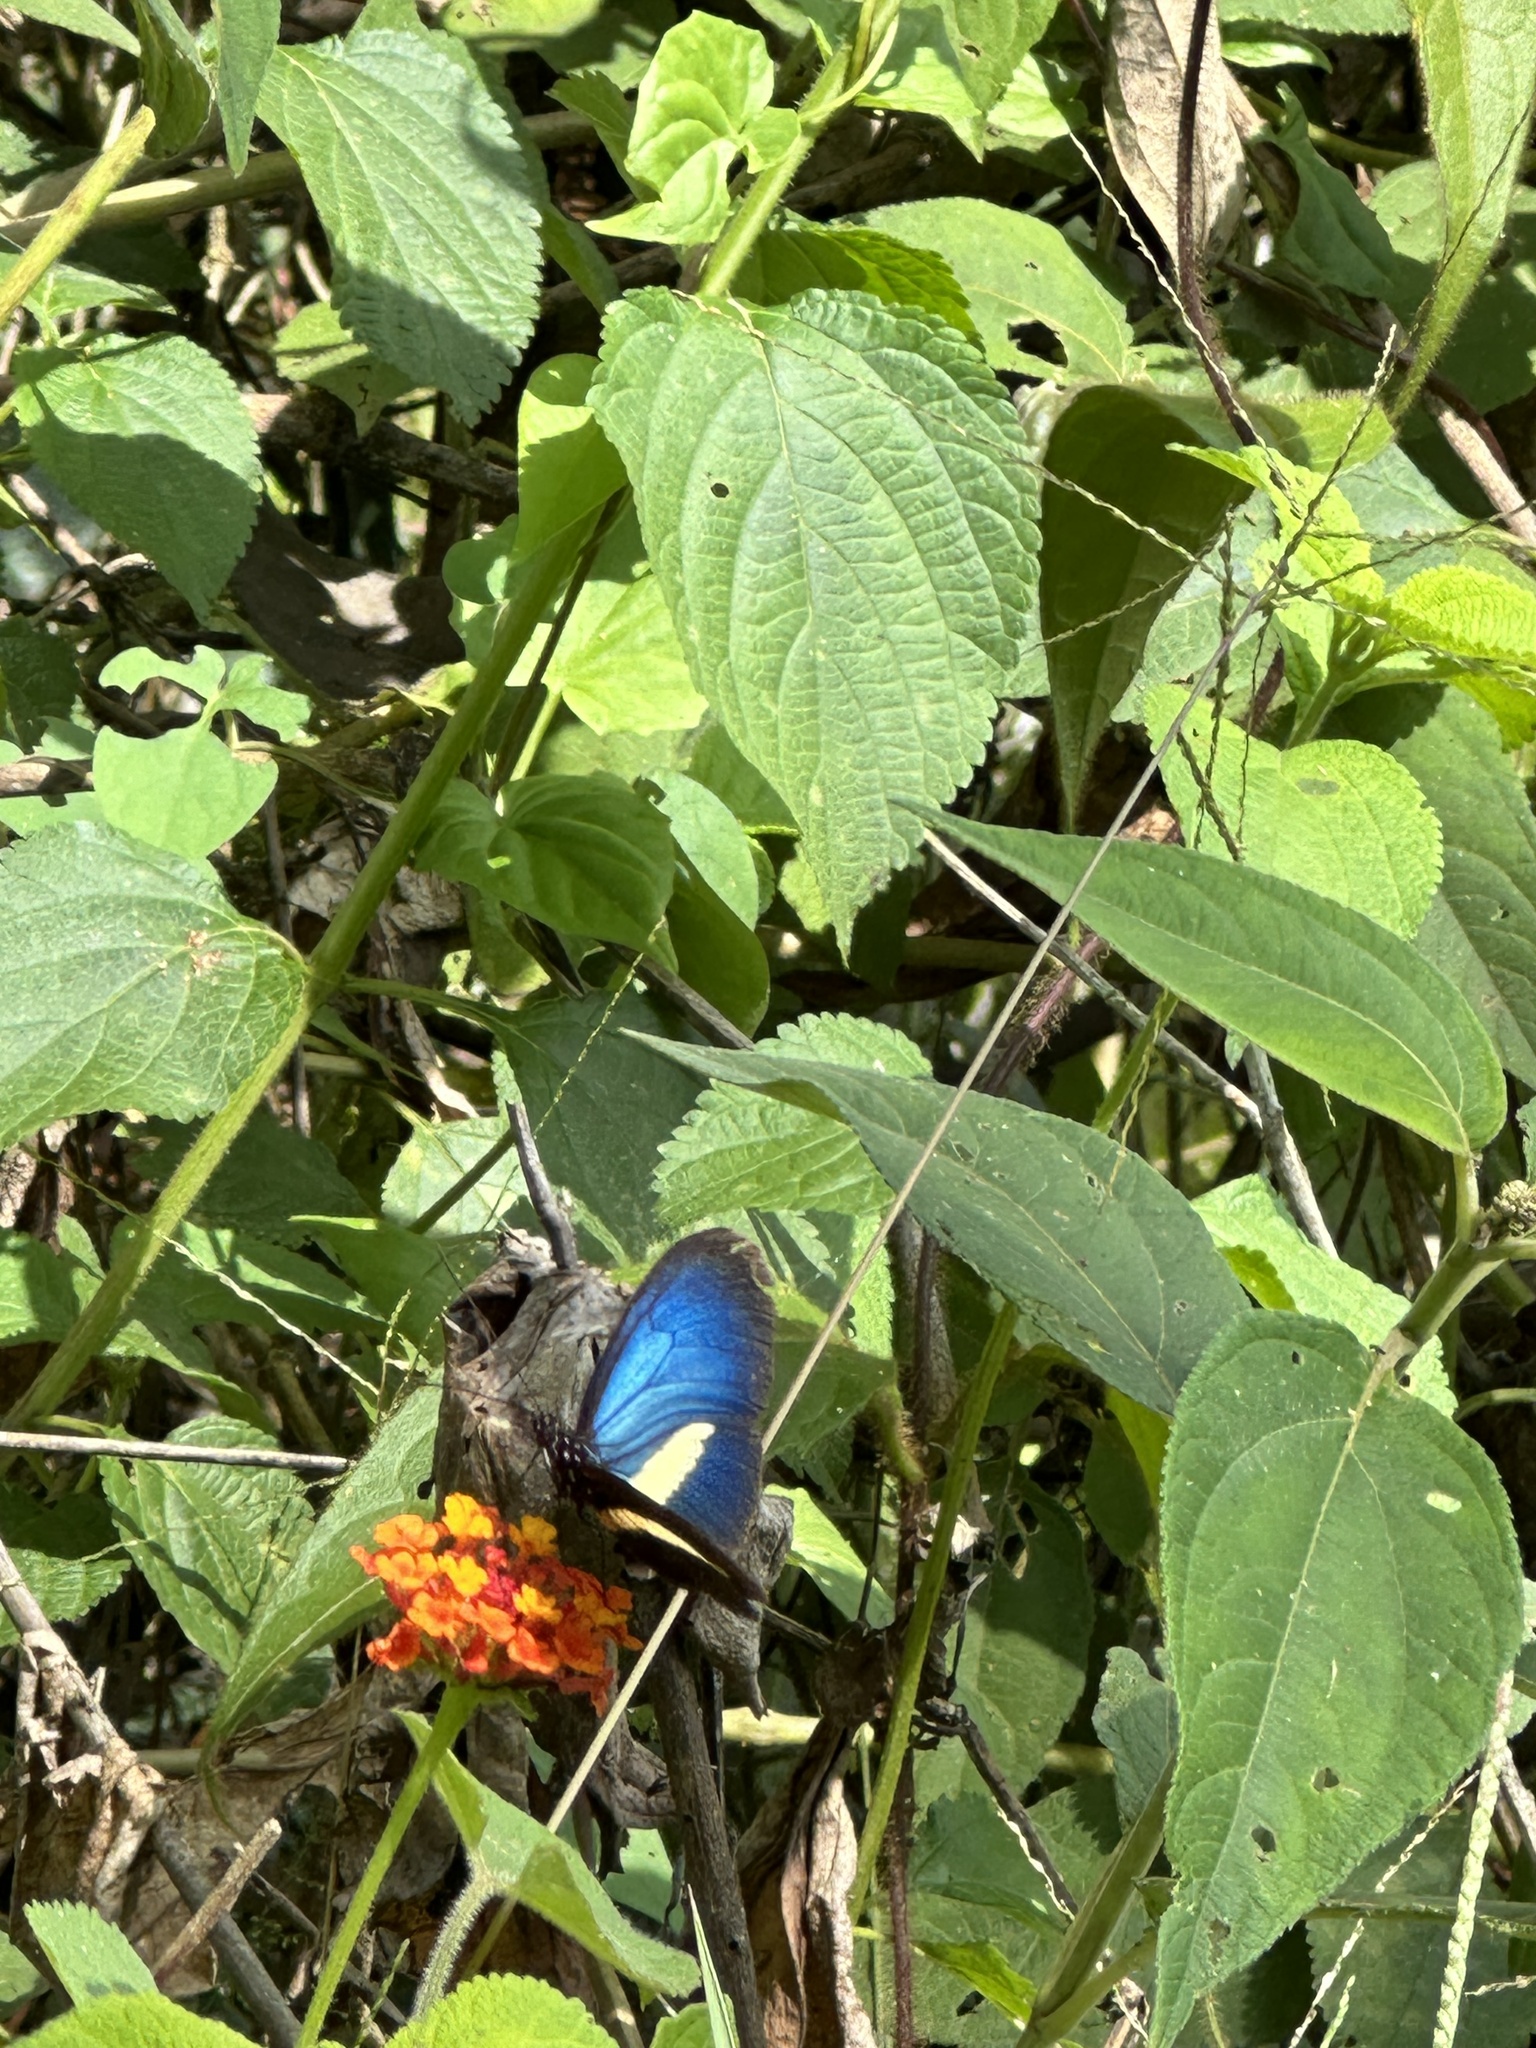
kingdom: Animalia
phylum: Arthropoda
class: Insecta
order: Lepidoptera
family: Nymphalidae
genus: Heliconius
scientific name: Heliconius erato
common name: Common patch longwing
